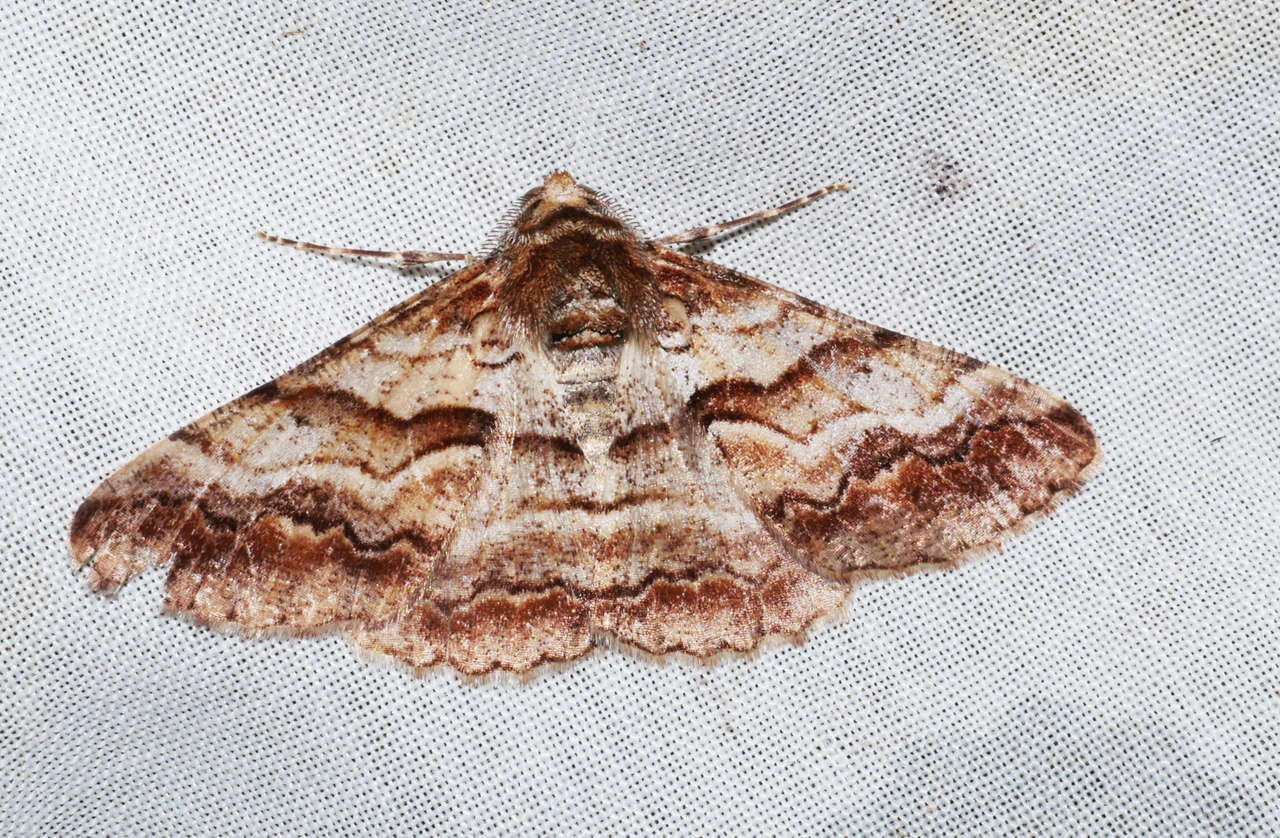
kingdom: Animalia
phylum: Arthropoda
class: Insecta
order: Lepidoptera
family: Geometridae
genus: Gastrinodes
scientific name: Gastrinodes bitaeniaria
